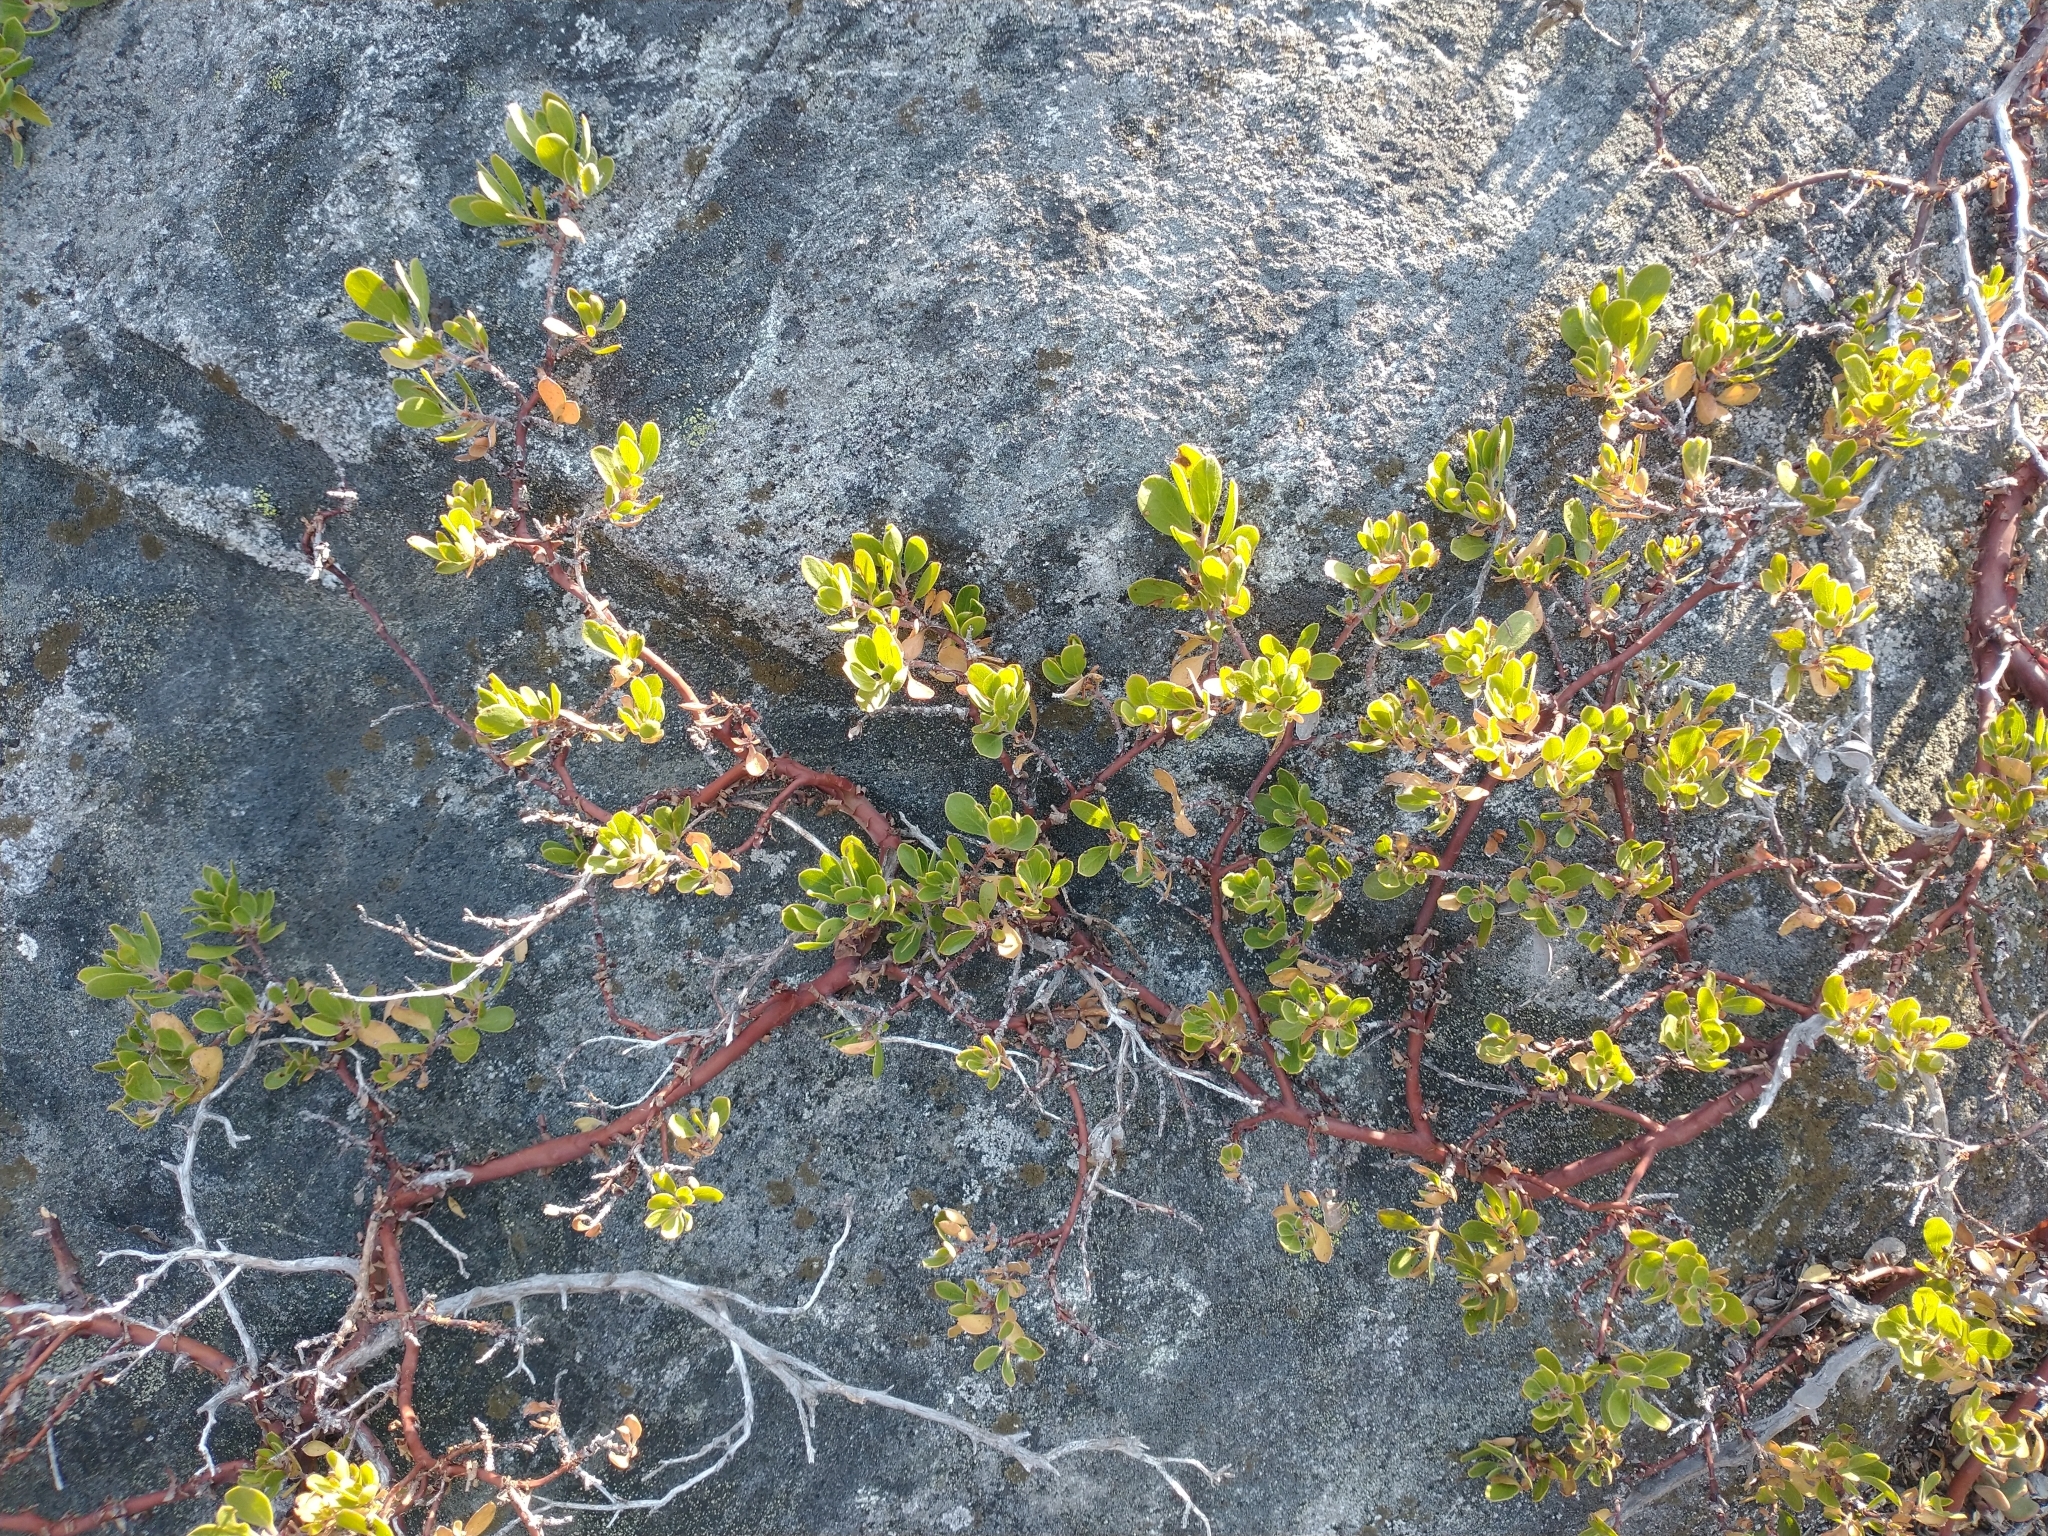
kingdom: Plantae
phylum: Tracheophyta
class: Magnoliopsida
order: Ericales
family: Ericaceae
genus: Arctostaphylos
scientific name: Arctostaphylos nevadensis
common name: Pinemat manzanita
